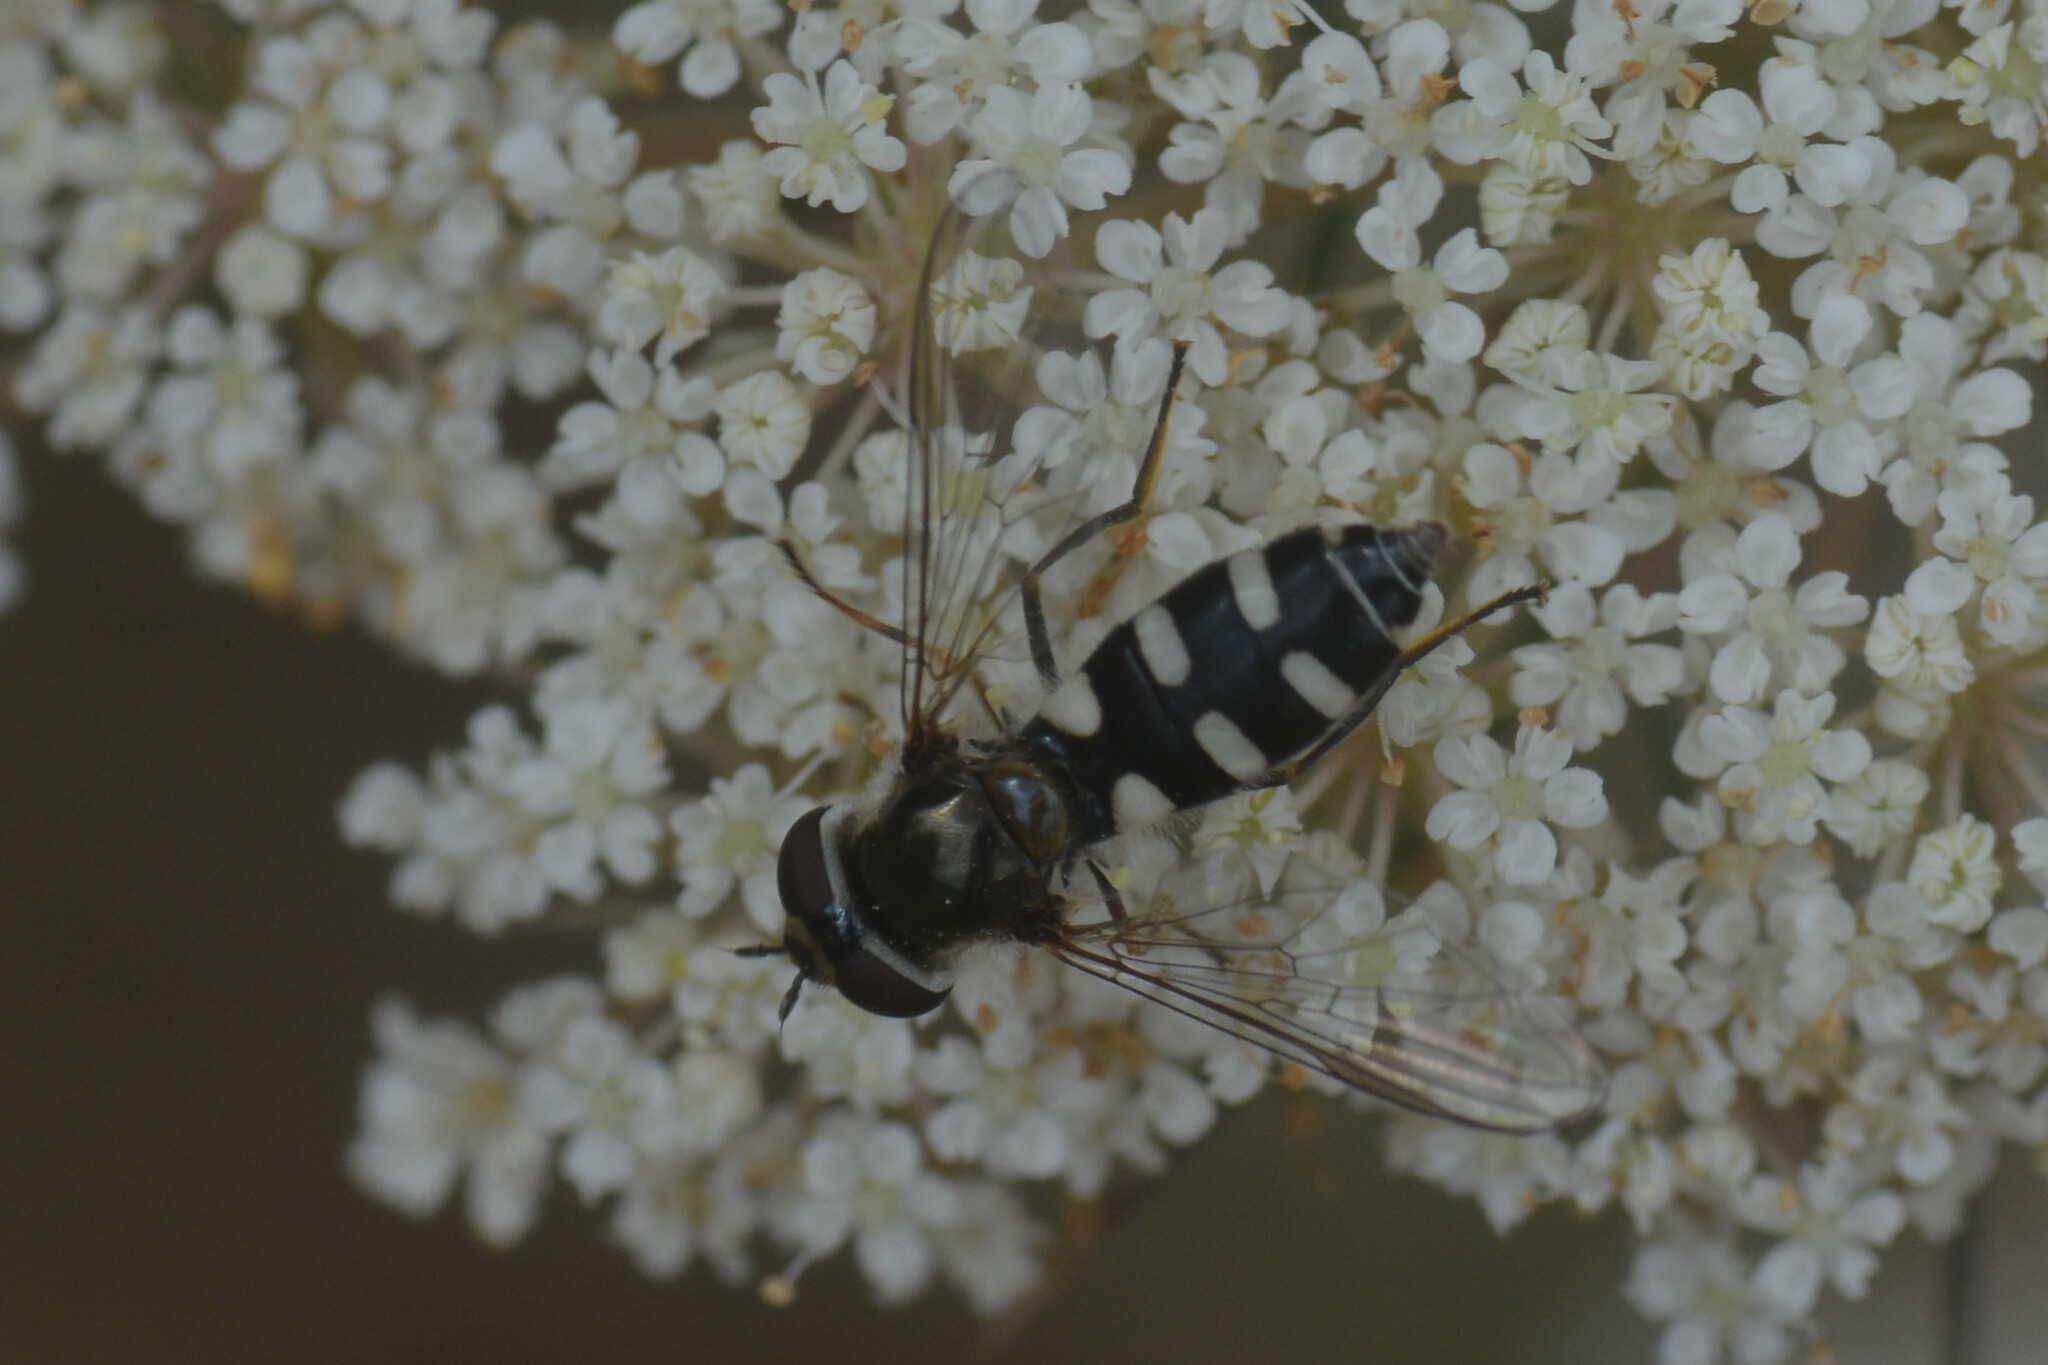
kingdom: Animalia
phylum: Arthropoda
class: Insecta
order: Diptera
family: Syrphidae
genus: Melangyna
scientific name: Melangyna umbellatarum
